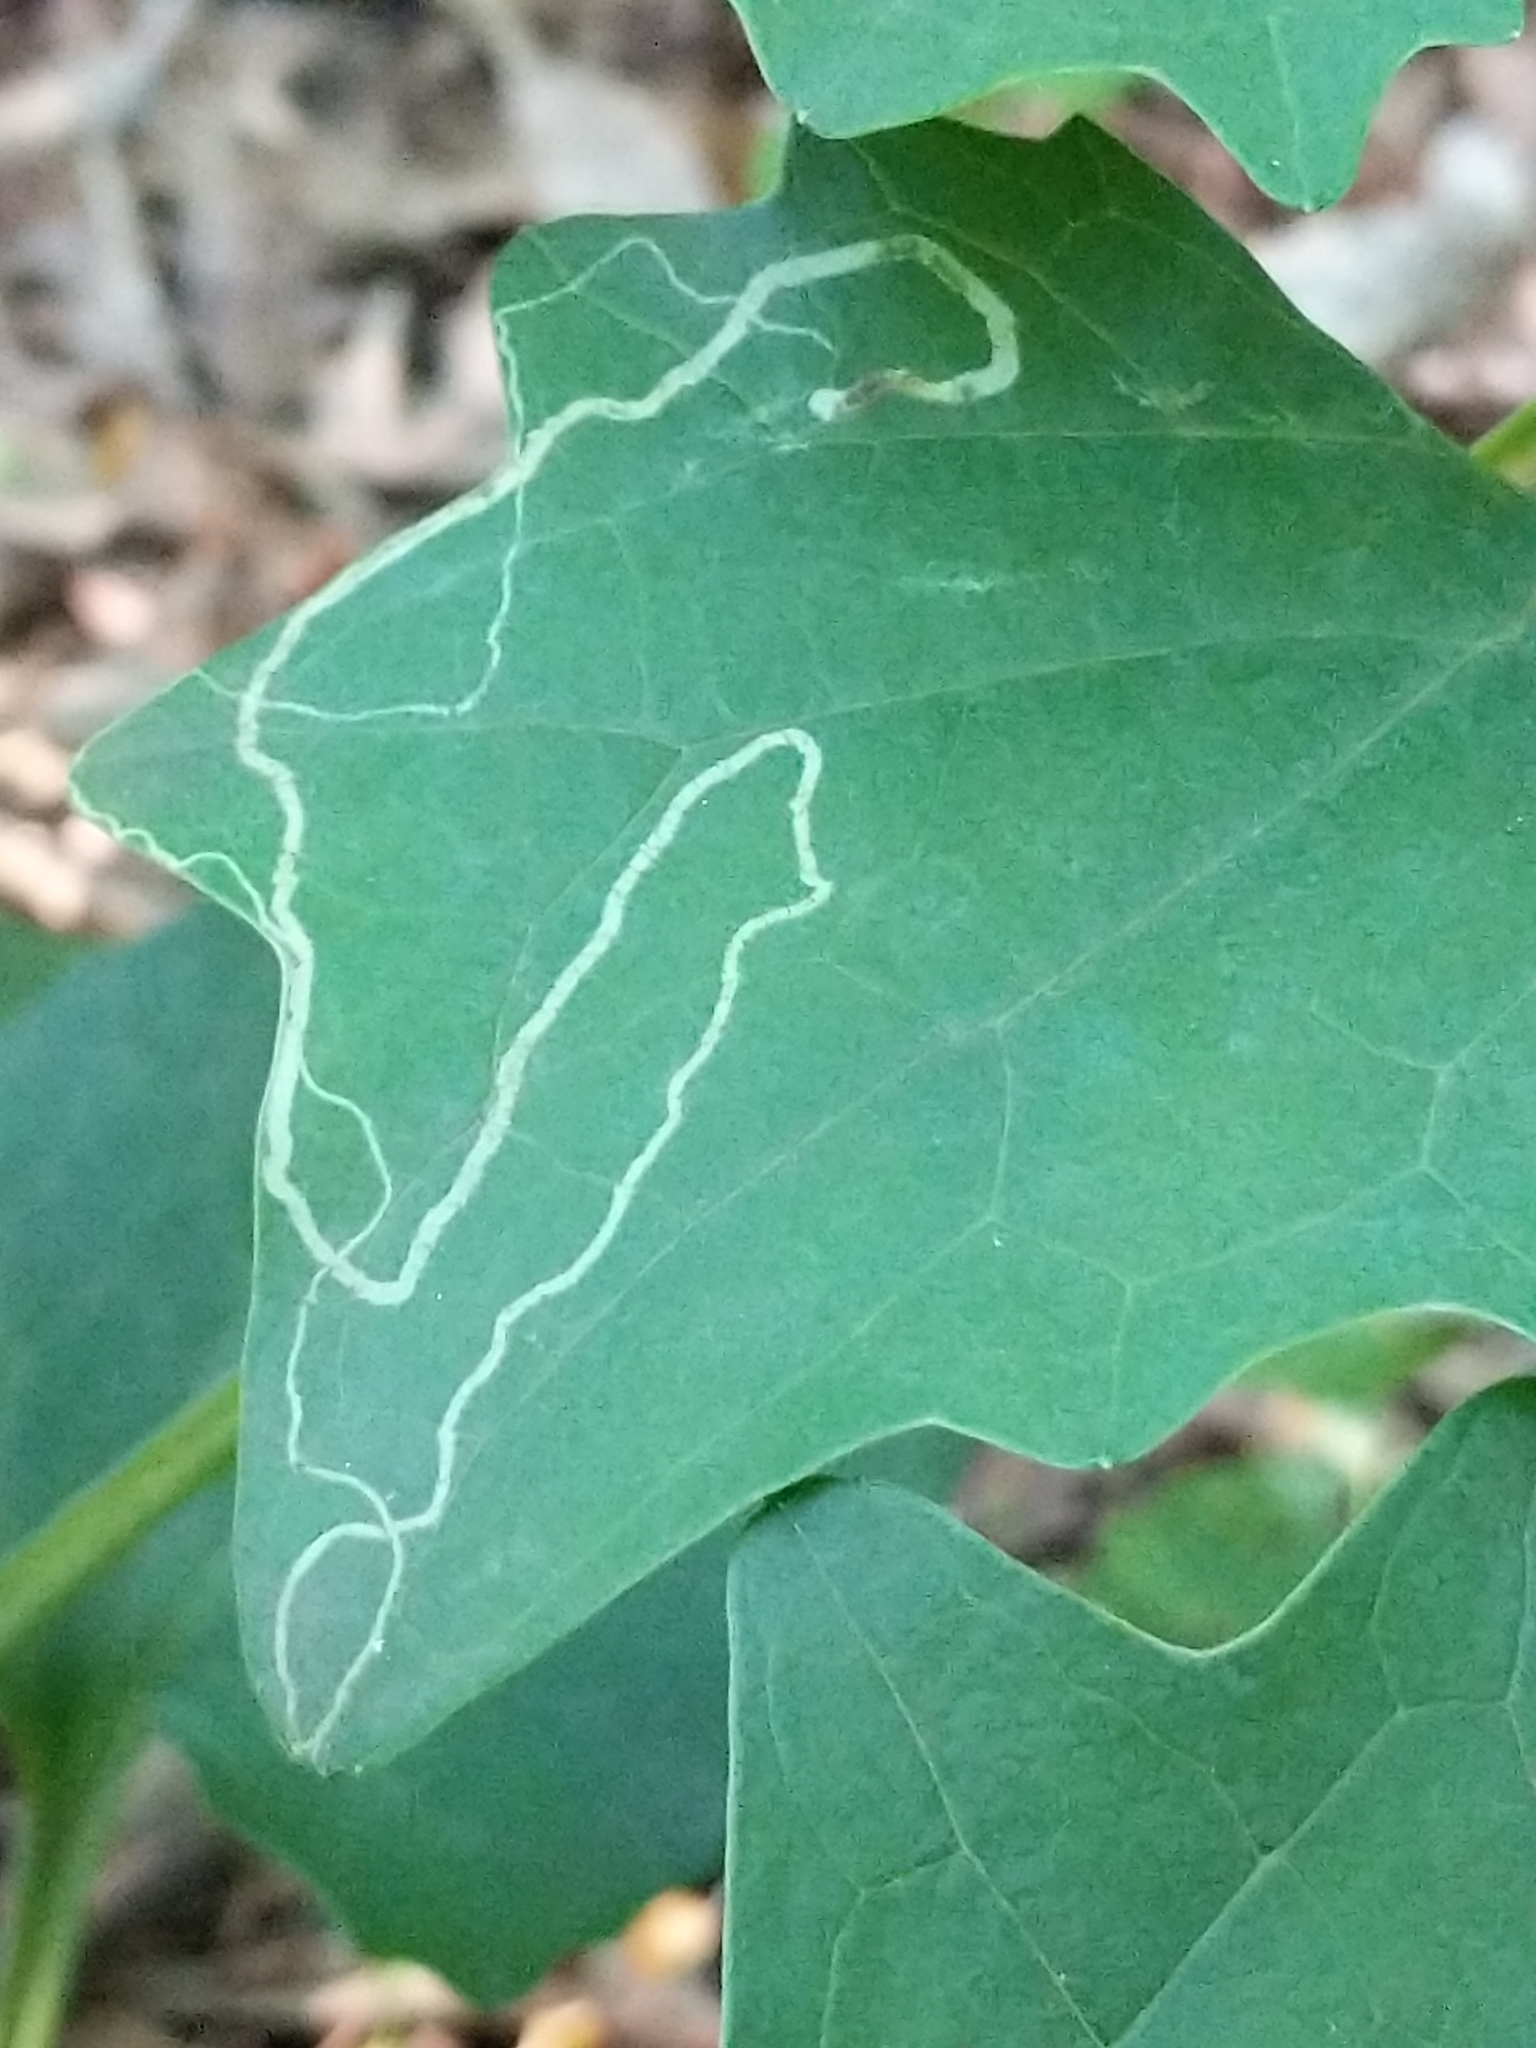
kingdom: Animalia
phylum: Arthropoda
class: Insecta
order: Lepidoptera
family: Gracillariidae
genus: Phyllocnistis
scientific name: Phyllocnistis insignis
